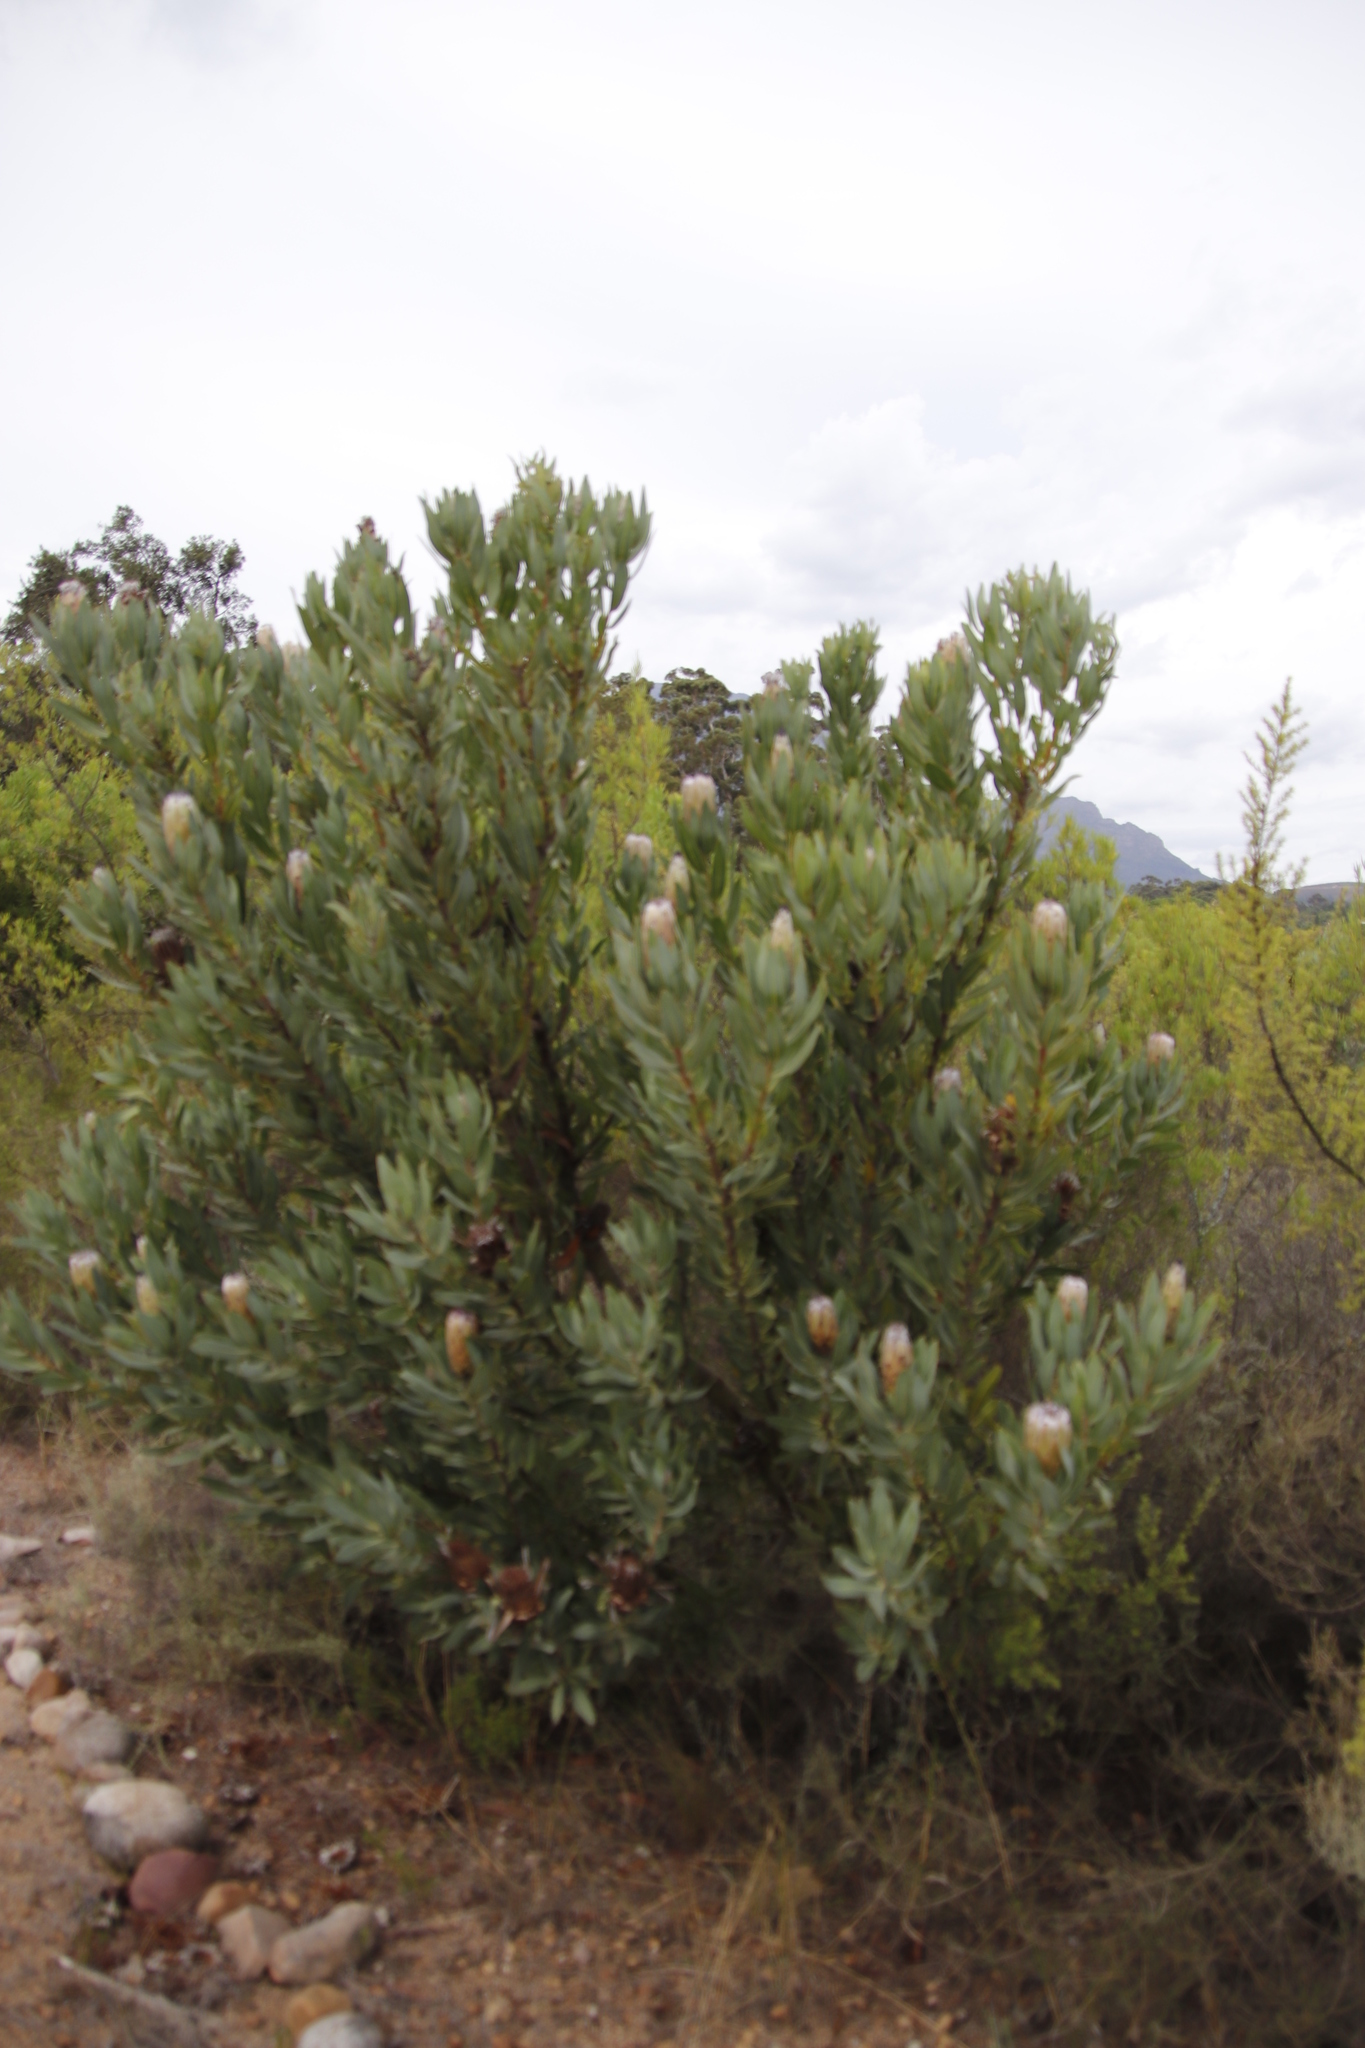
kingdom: Plantae
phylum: Tracheophyta
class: Magnoliopsida
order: Proteales
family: Proteaceae
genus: Protea
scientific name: Protea laurifolia
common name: Grey-leaf sugarbsh
